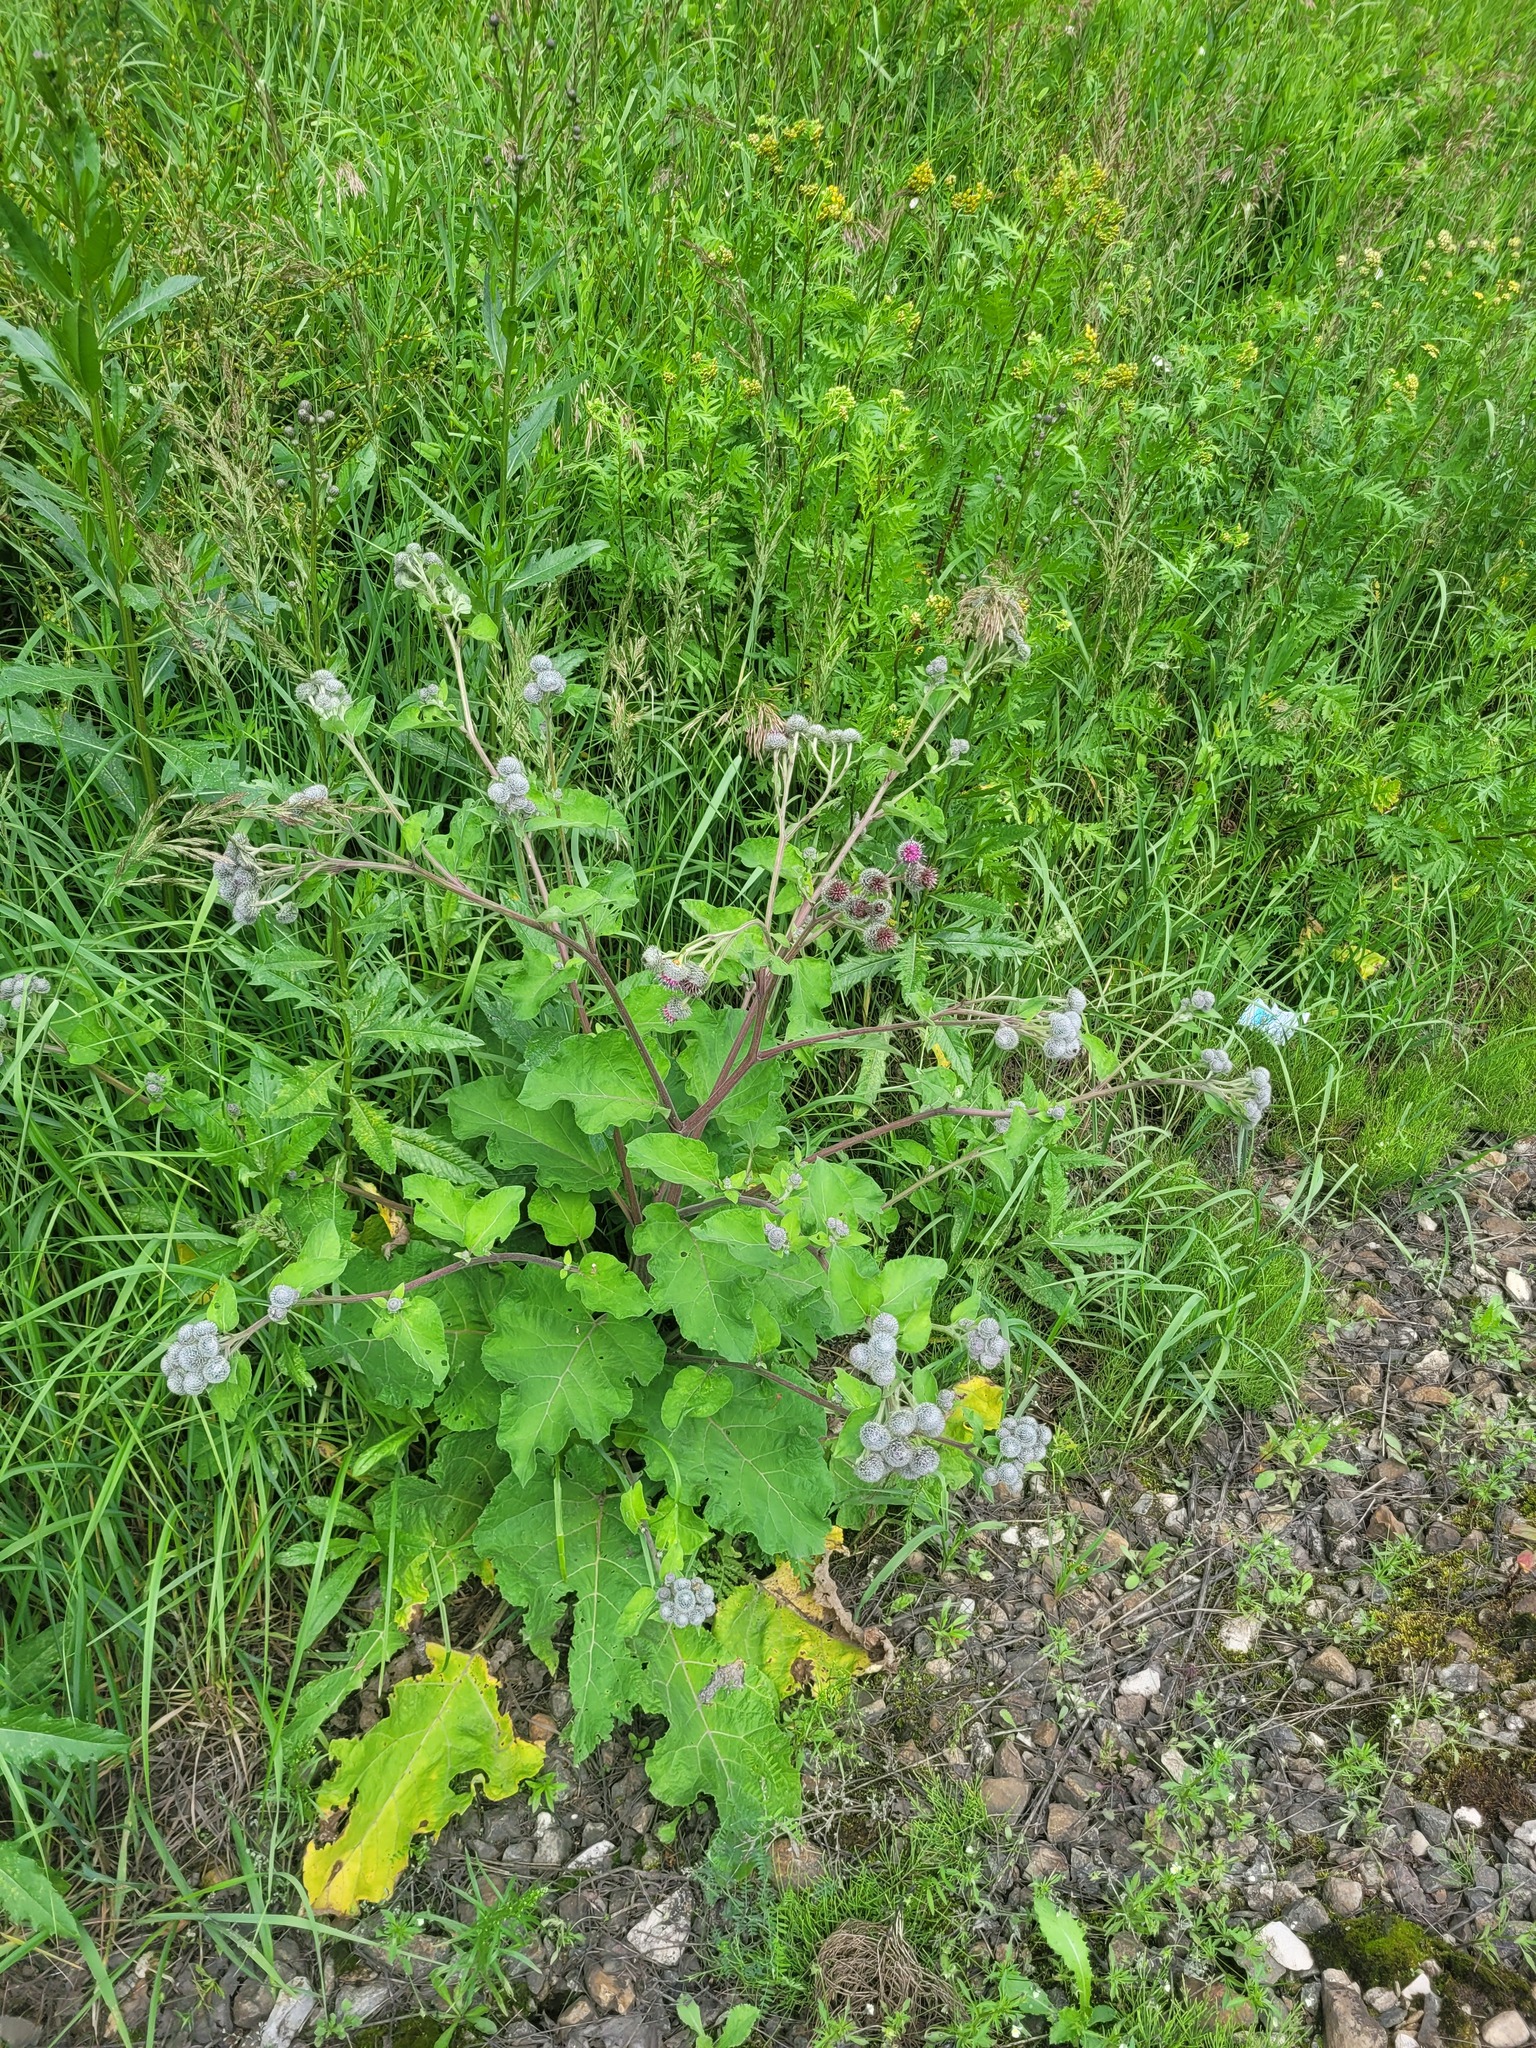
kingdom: Plantae
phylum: Tracheophyta
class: Magnoliopsida
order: Asterales
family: Asteraceae
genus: Arctium
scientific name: Arctium tomentosum
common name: Woolly burdock
